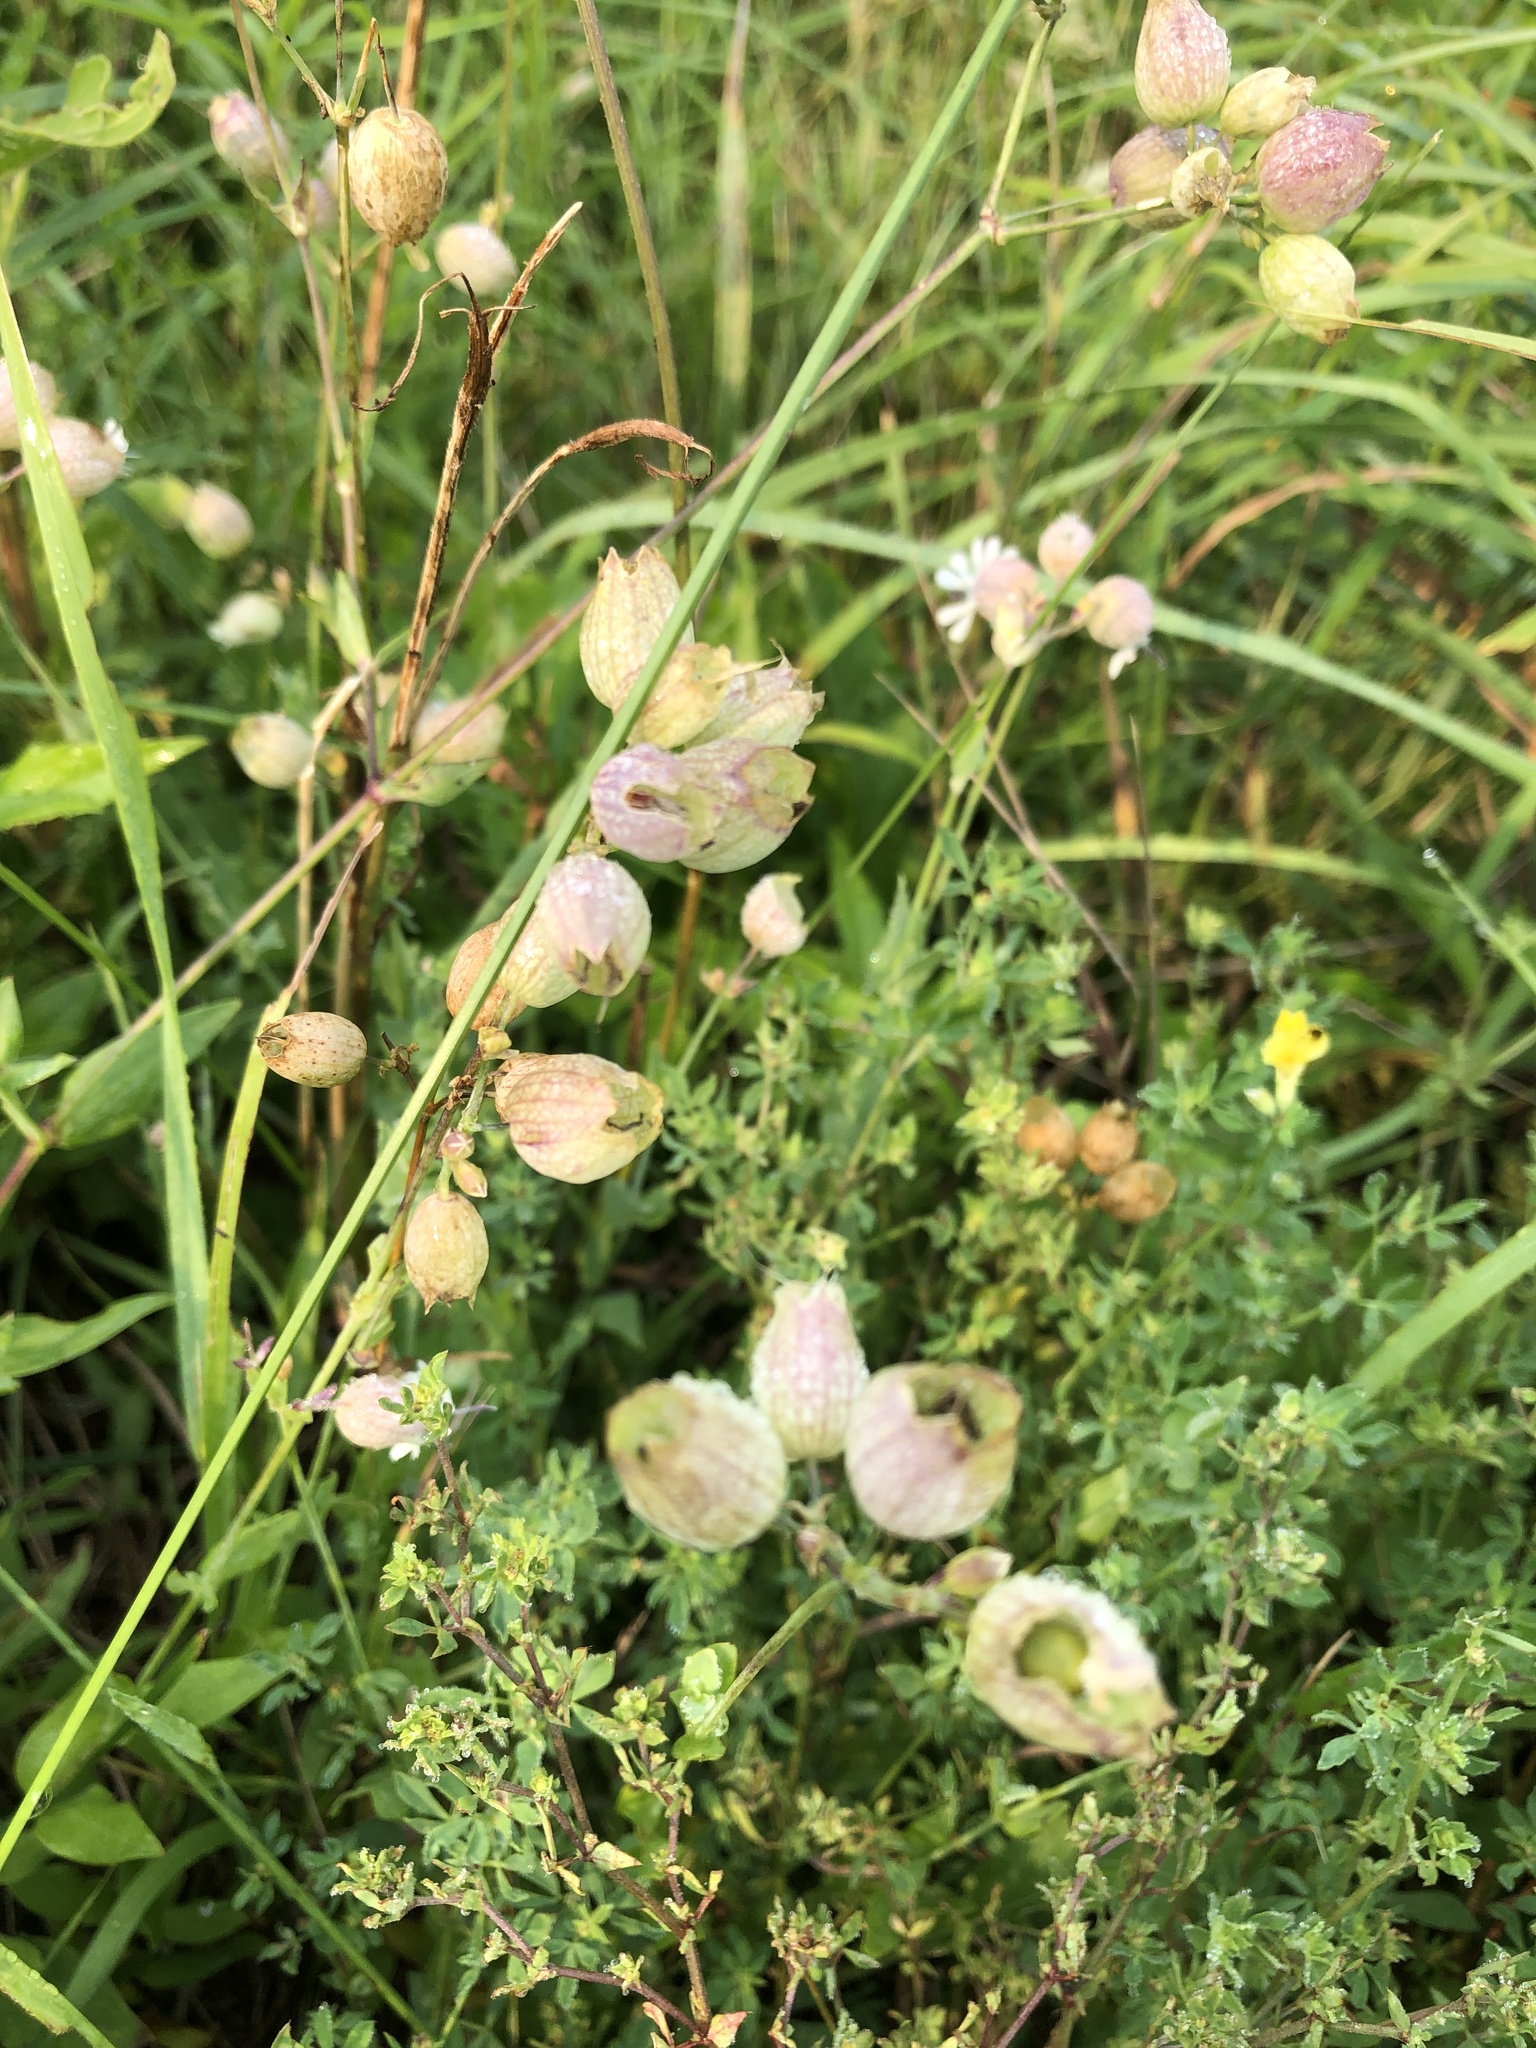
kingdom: Plantae
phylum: Tracheophyta
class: Magnoliopsida
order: Caryophyllales
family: Caryophyllaceae
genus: Silene
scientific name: Silene vulgaris
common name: Bladder campion
